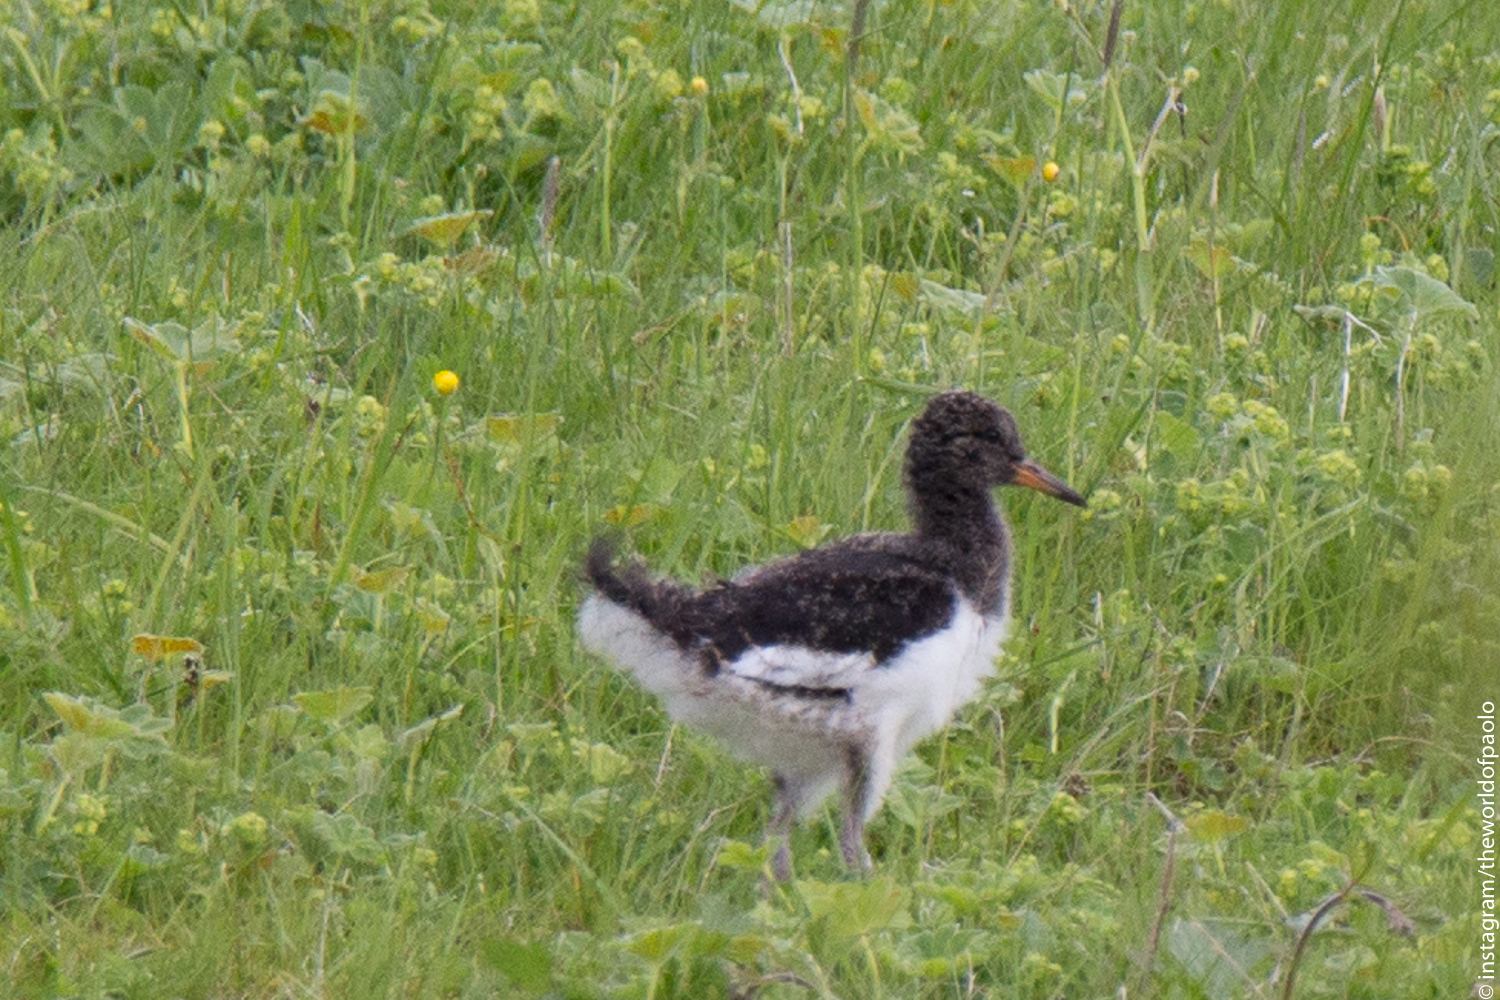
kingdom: Animalia
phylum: Chordata
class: Aves
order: Charadriiformes
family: Haematopodidae
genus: Haematopus
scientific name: Haematopus ostralegus
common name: Eurasian oystercatcher
